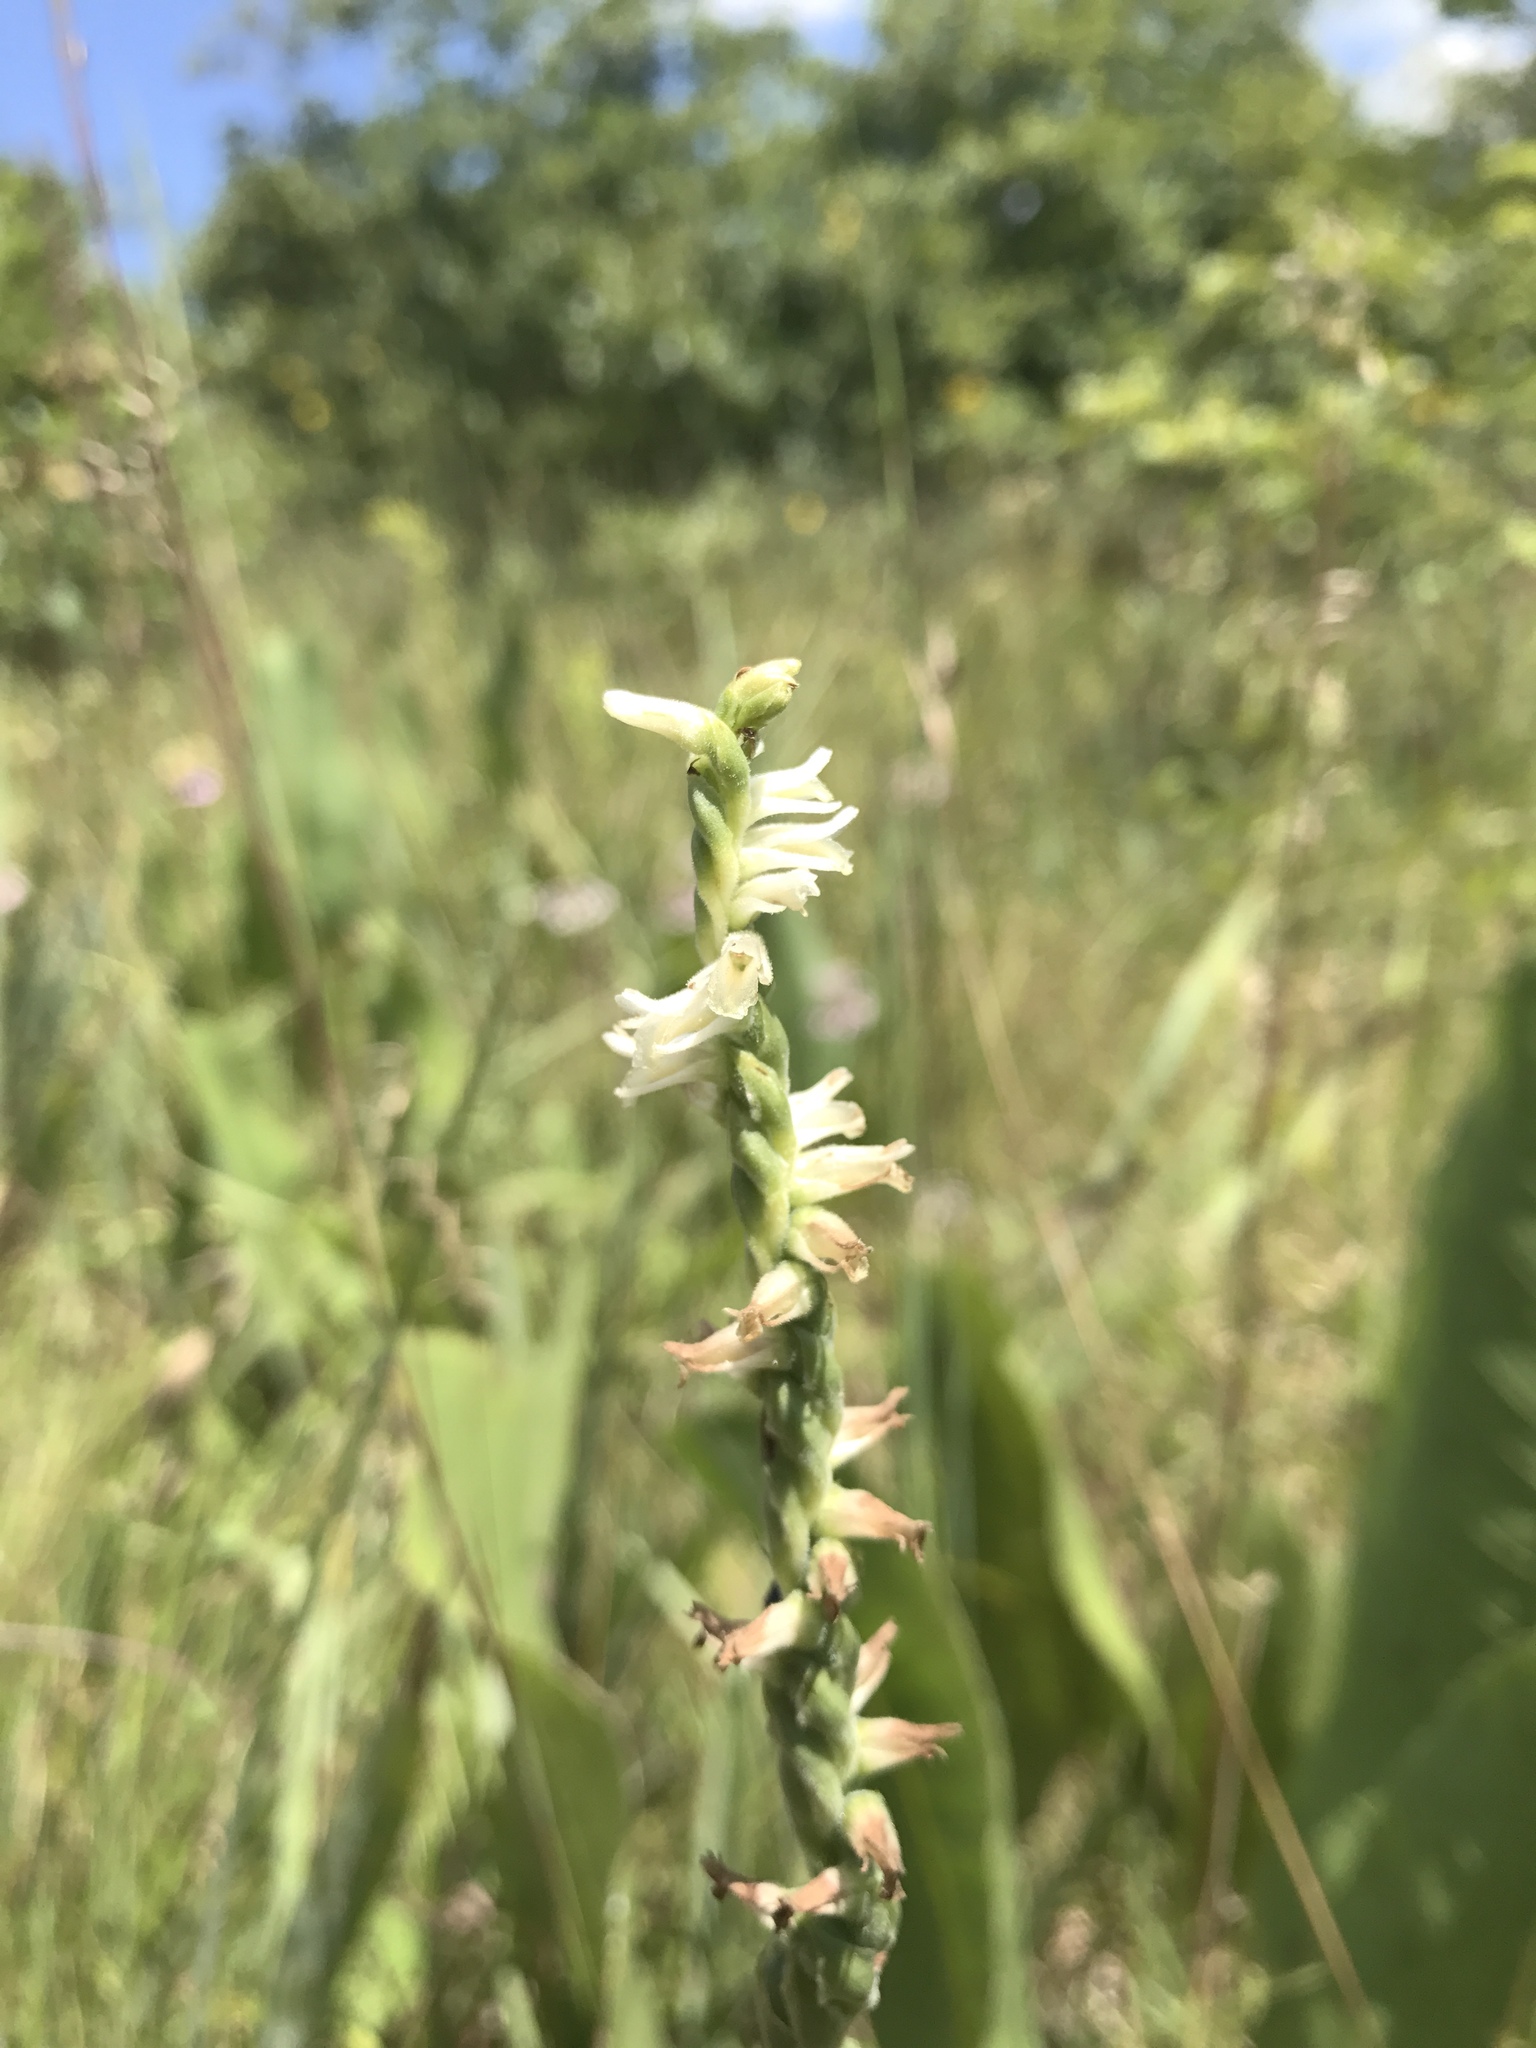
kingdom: Plantae
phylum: Tracheophyta
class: Liliopsida
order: Asparagales
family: Orchidaceae
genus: Spiranthes
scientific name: Spiranthes vernalis
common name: Spring ladies'-tresses
